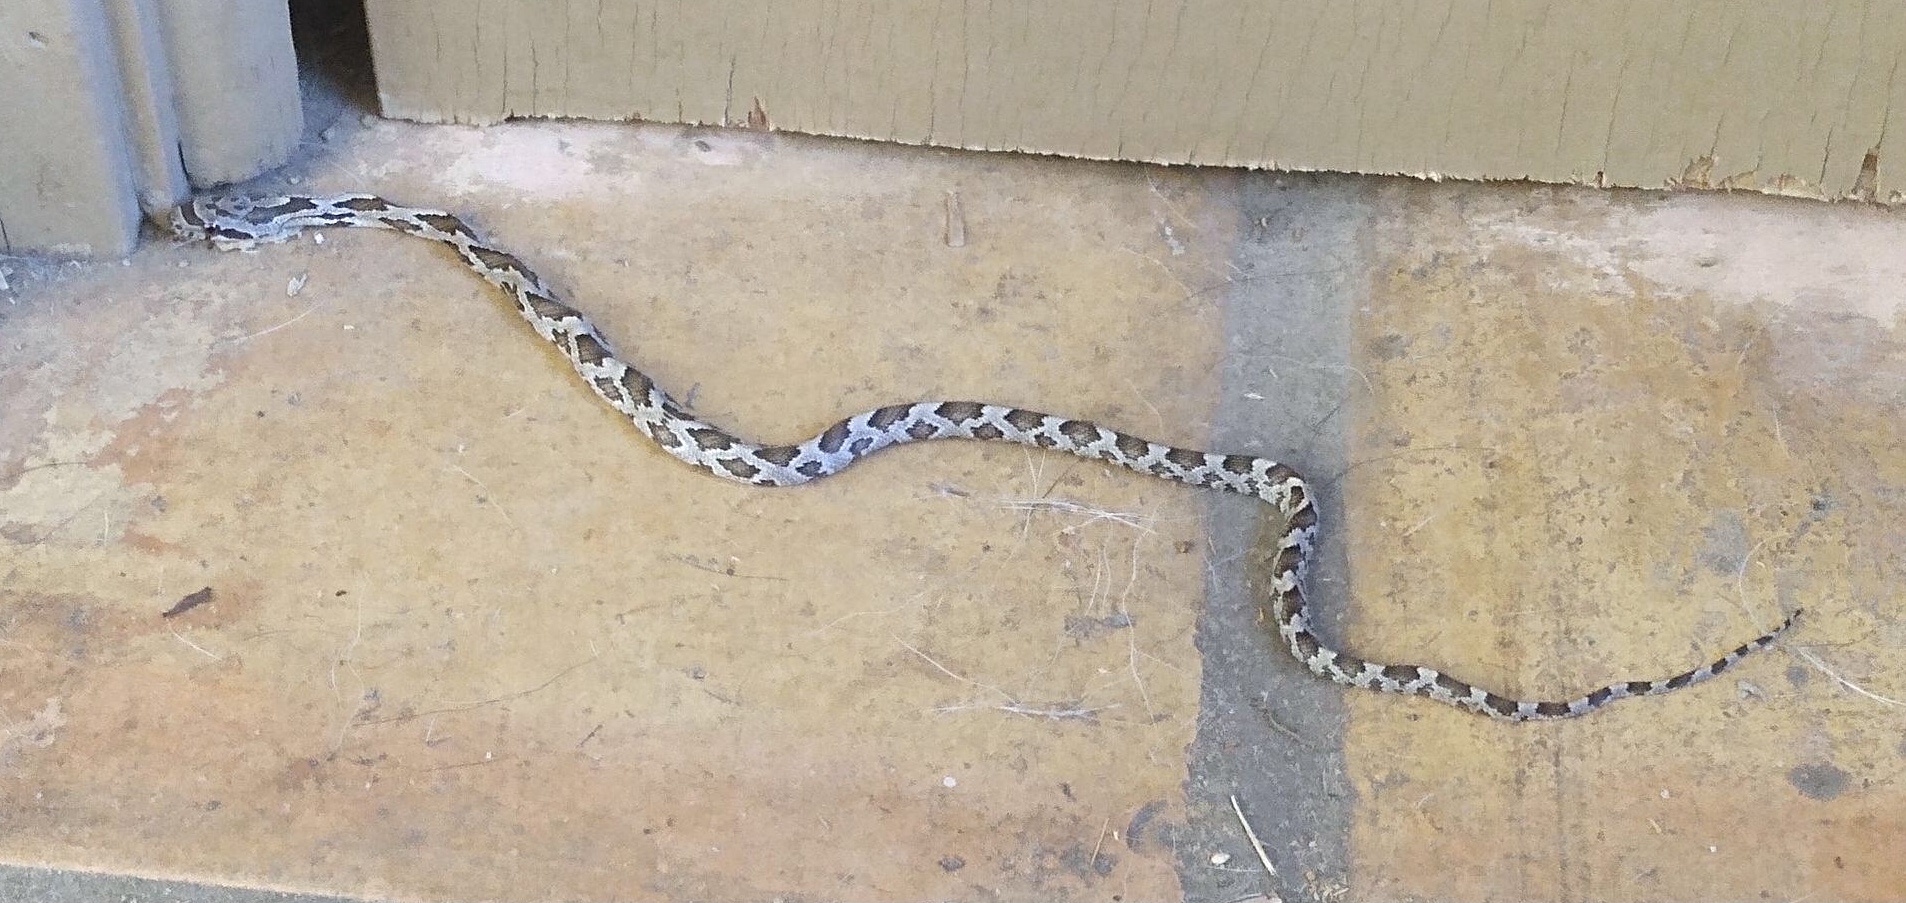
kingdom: Animalia
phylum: Chordata
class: Squamata
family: Colubridae
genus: Pantherophis
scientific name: Pantherophis obsoletus
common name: Black rat snake
